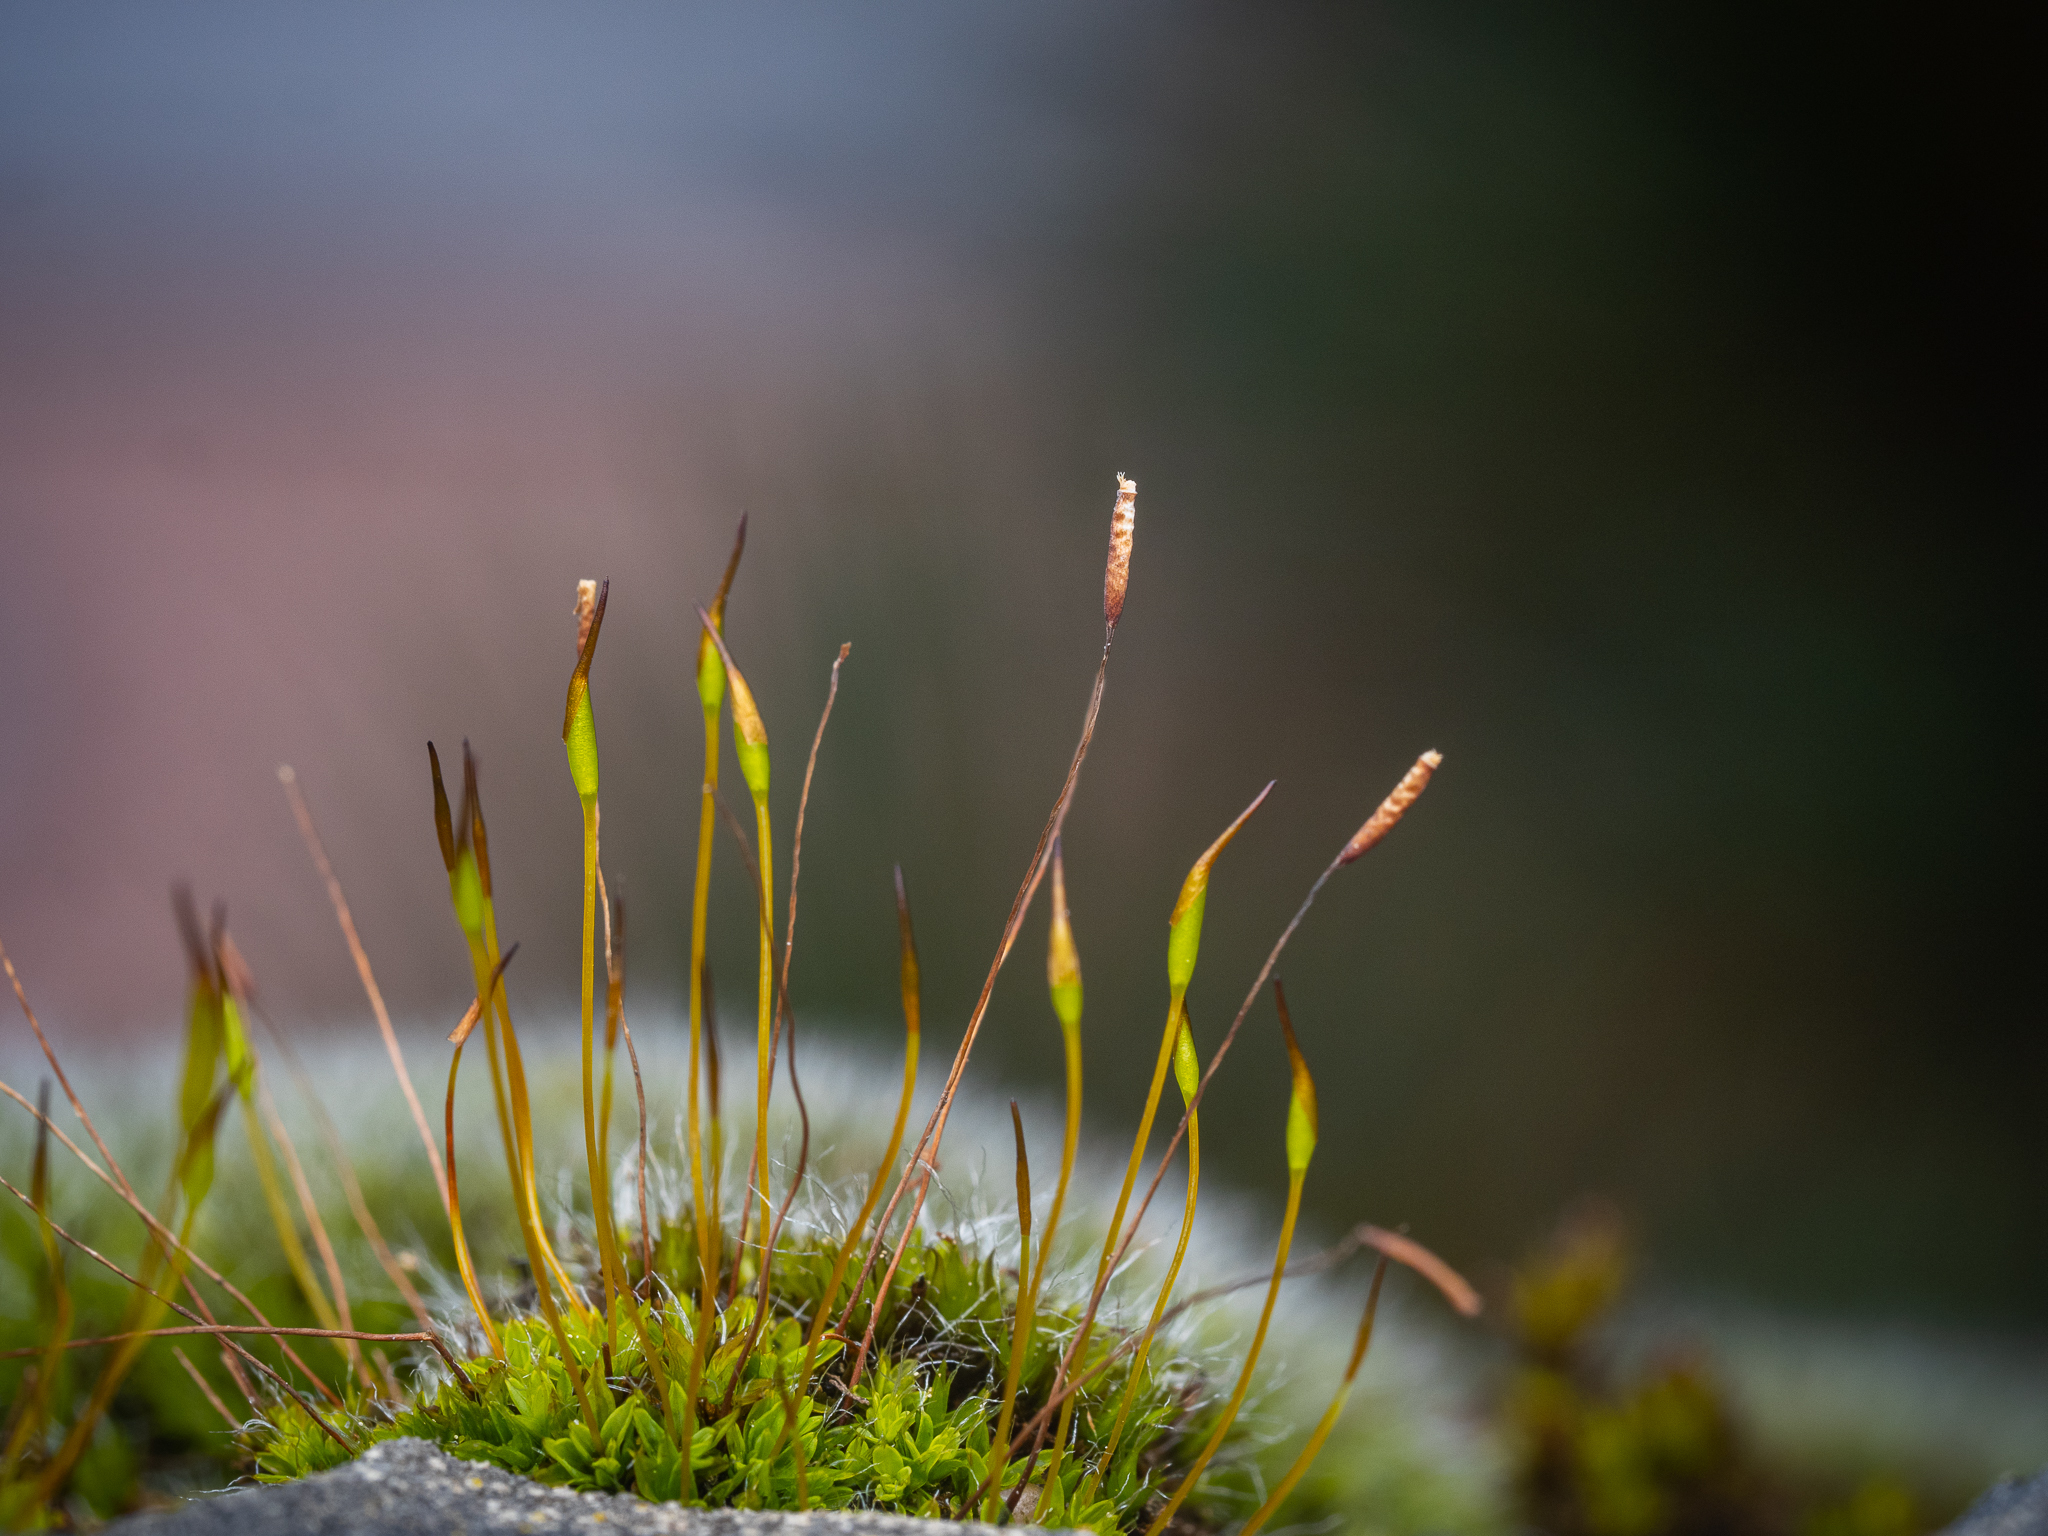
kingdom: Plantae
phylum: Bryophyta
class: Bryopsida
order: Pottiales
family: Pottiaceae
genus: Tortula
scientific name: Tortula muralis
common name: Wall screw-moss
